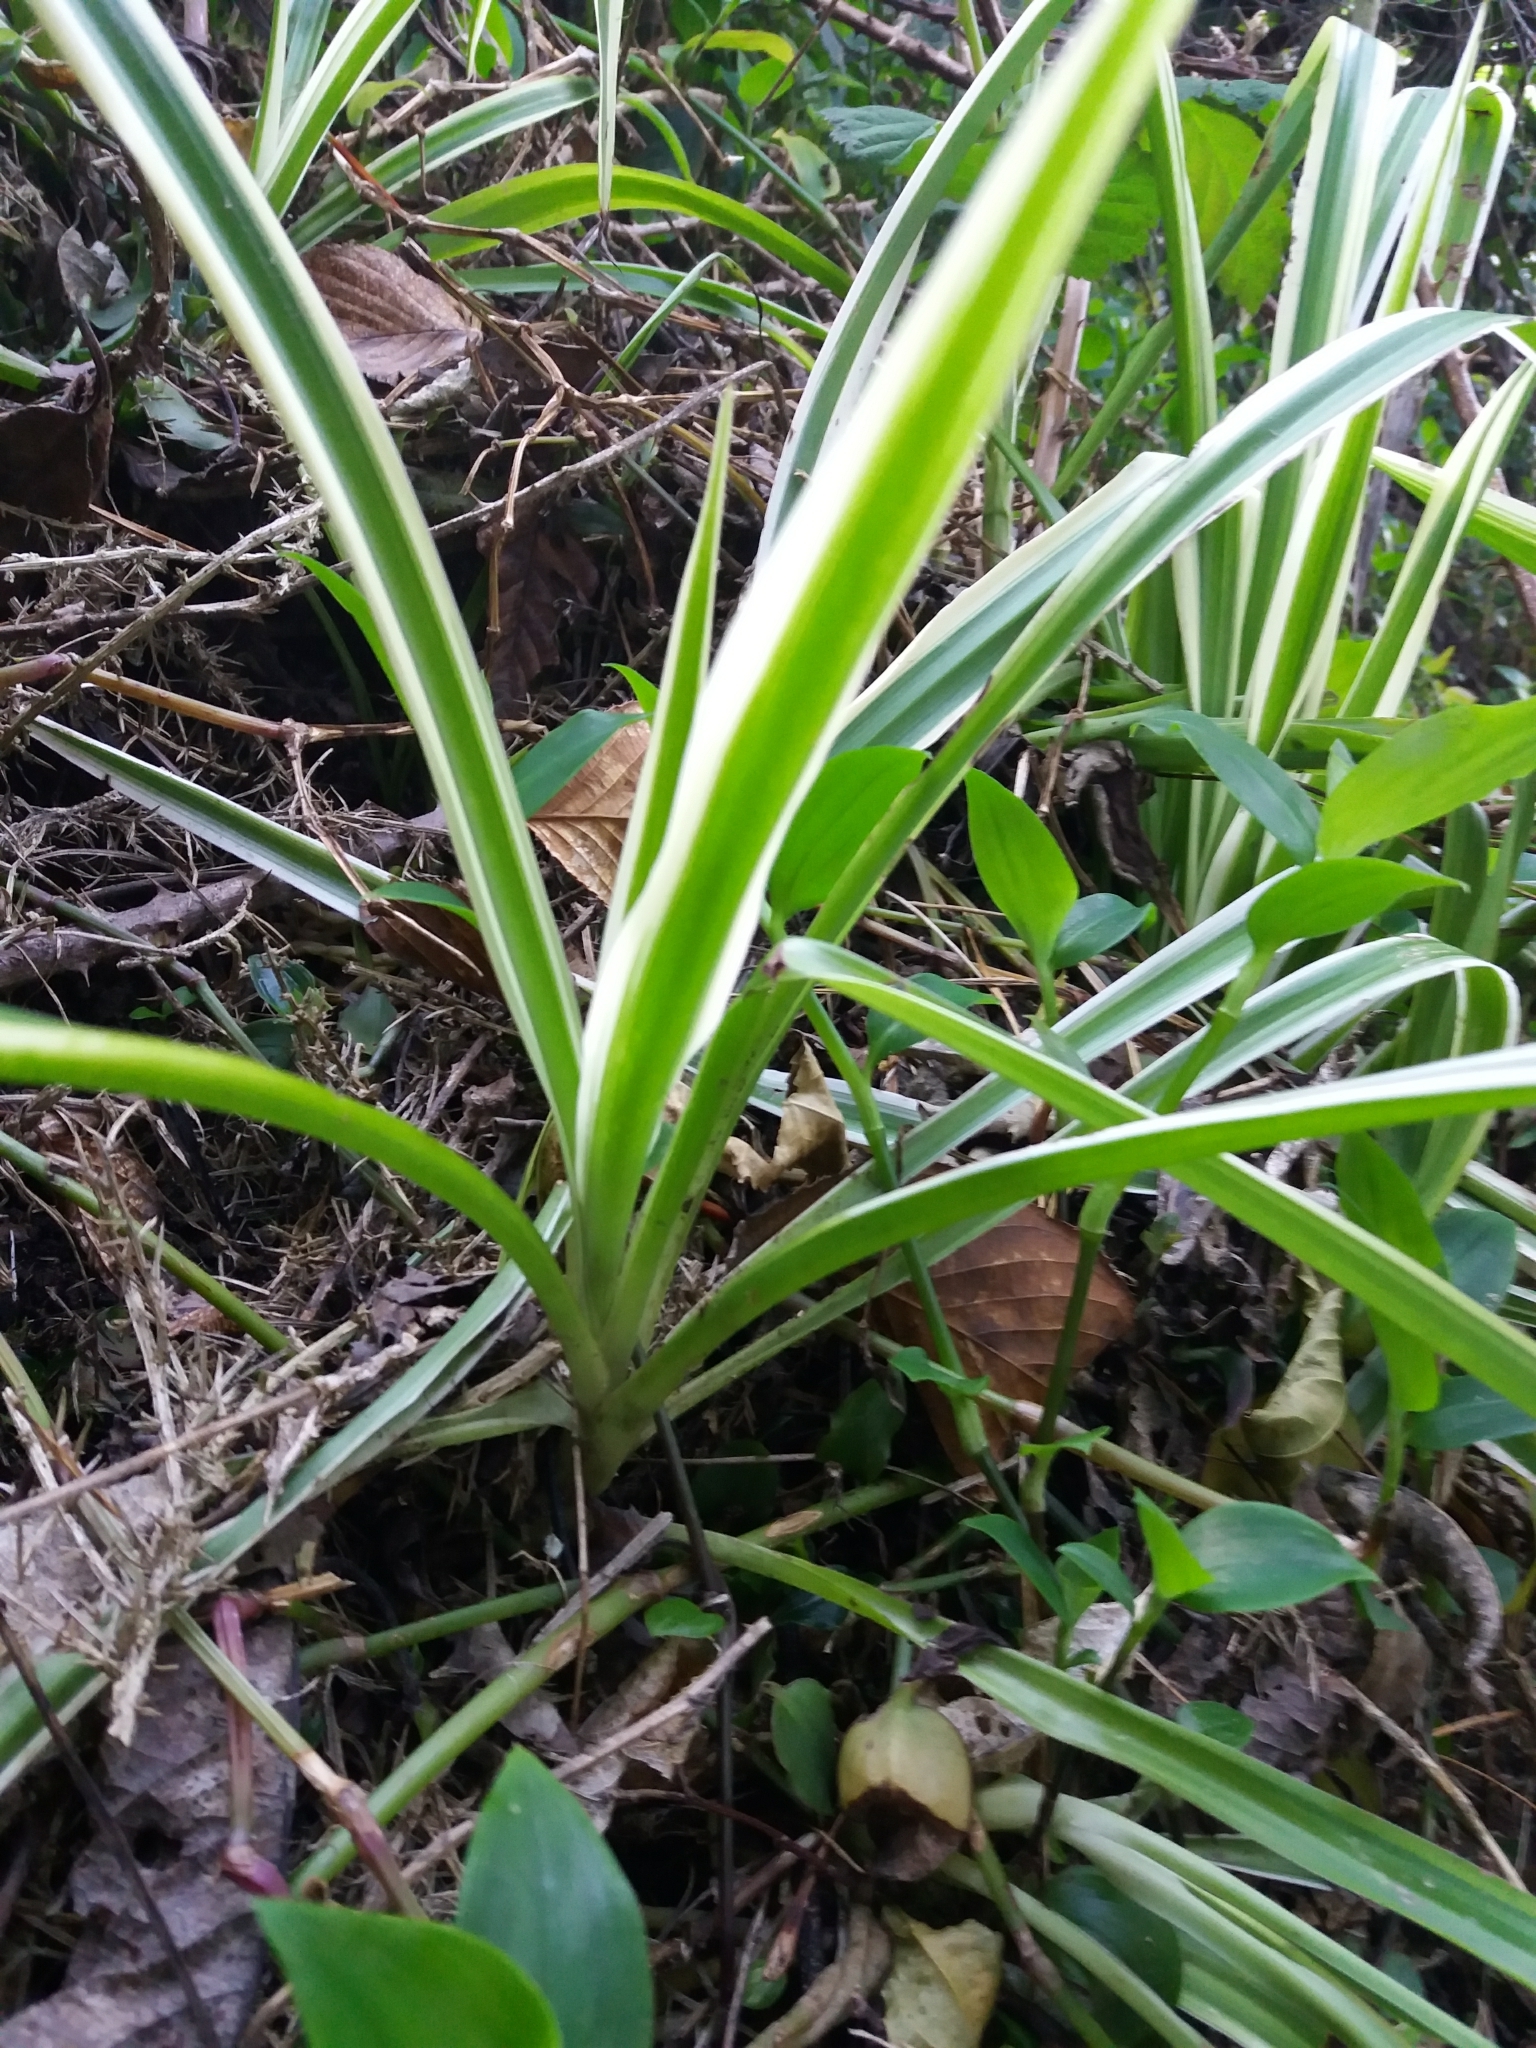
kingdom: Plantae
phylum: Tracheophyta
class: Liliopsida
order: Asparagales
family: Asparagaceae
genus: Chlorophytum
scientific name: Chlorophytum comosum
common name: Spider plant
